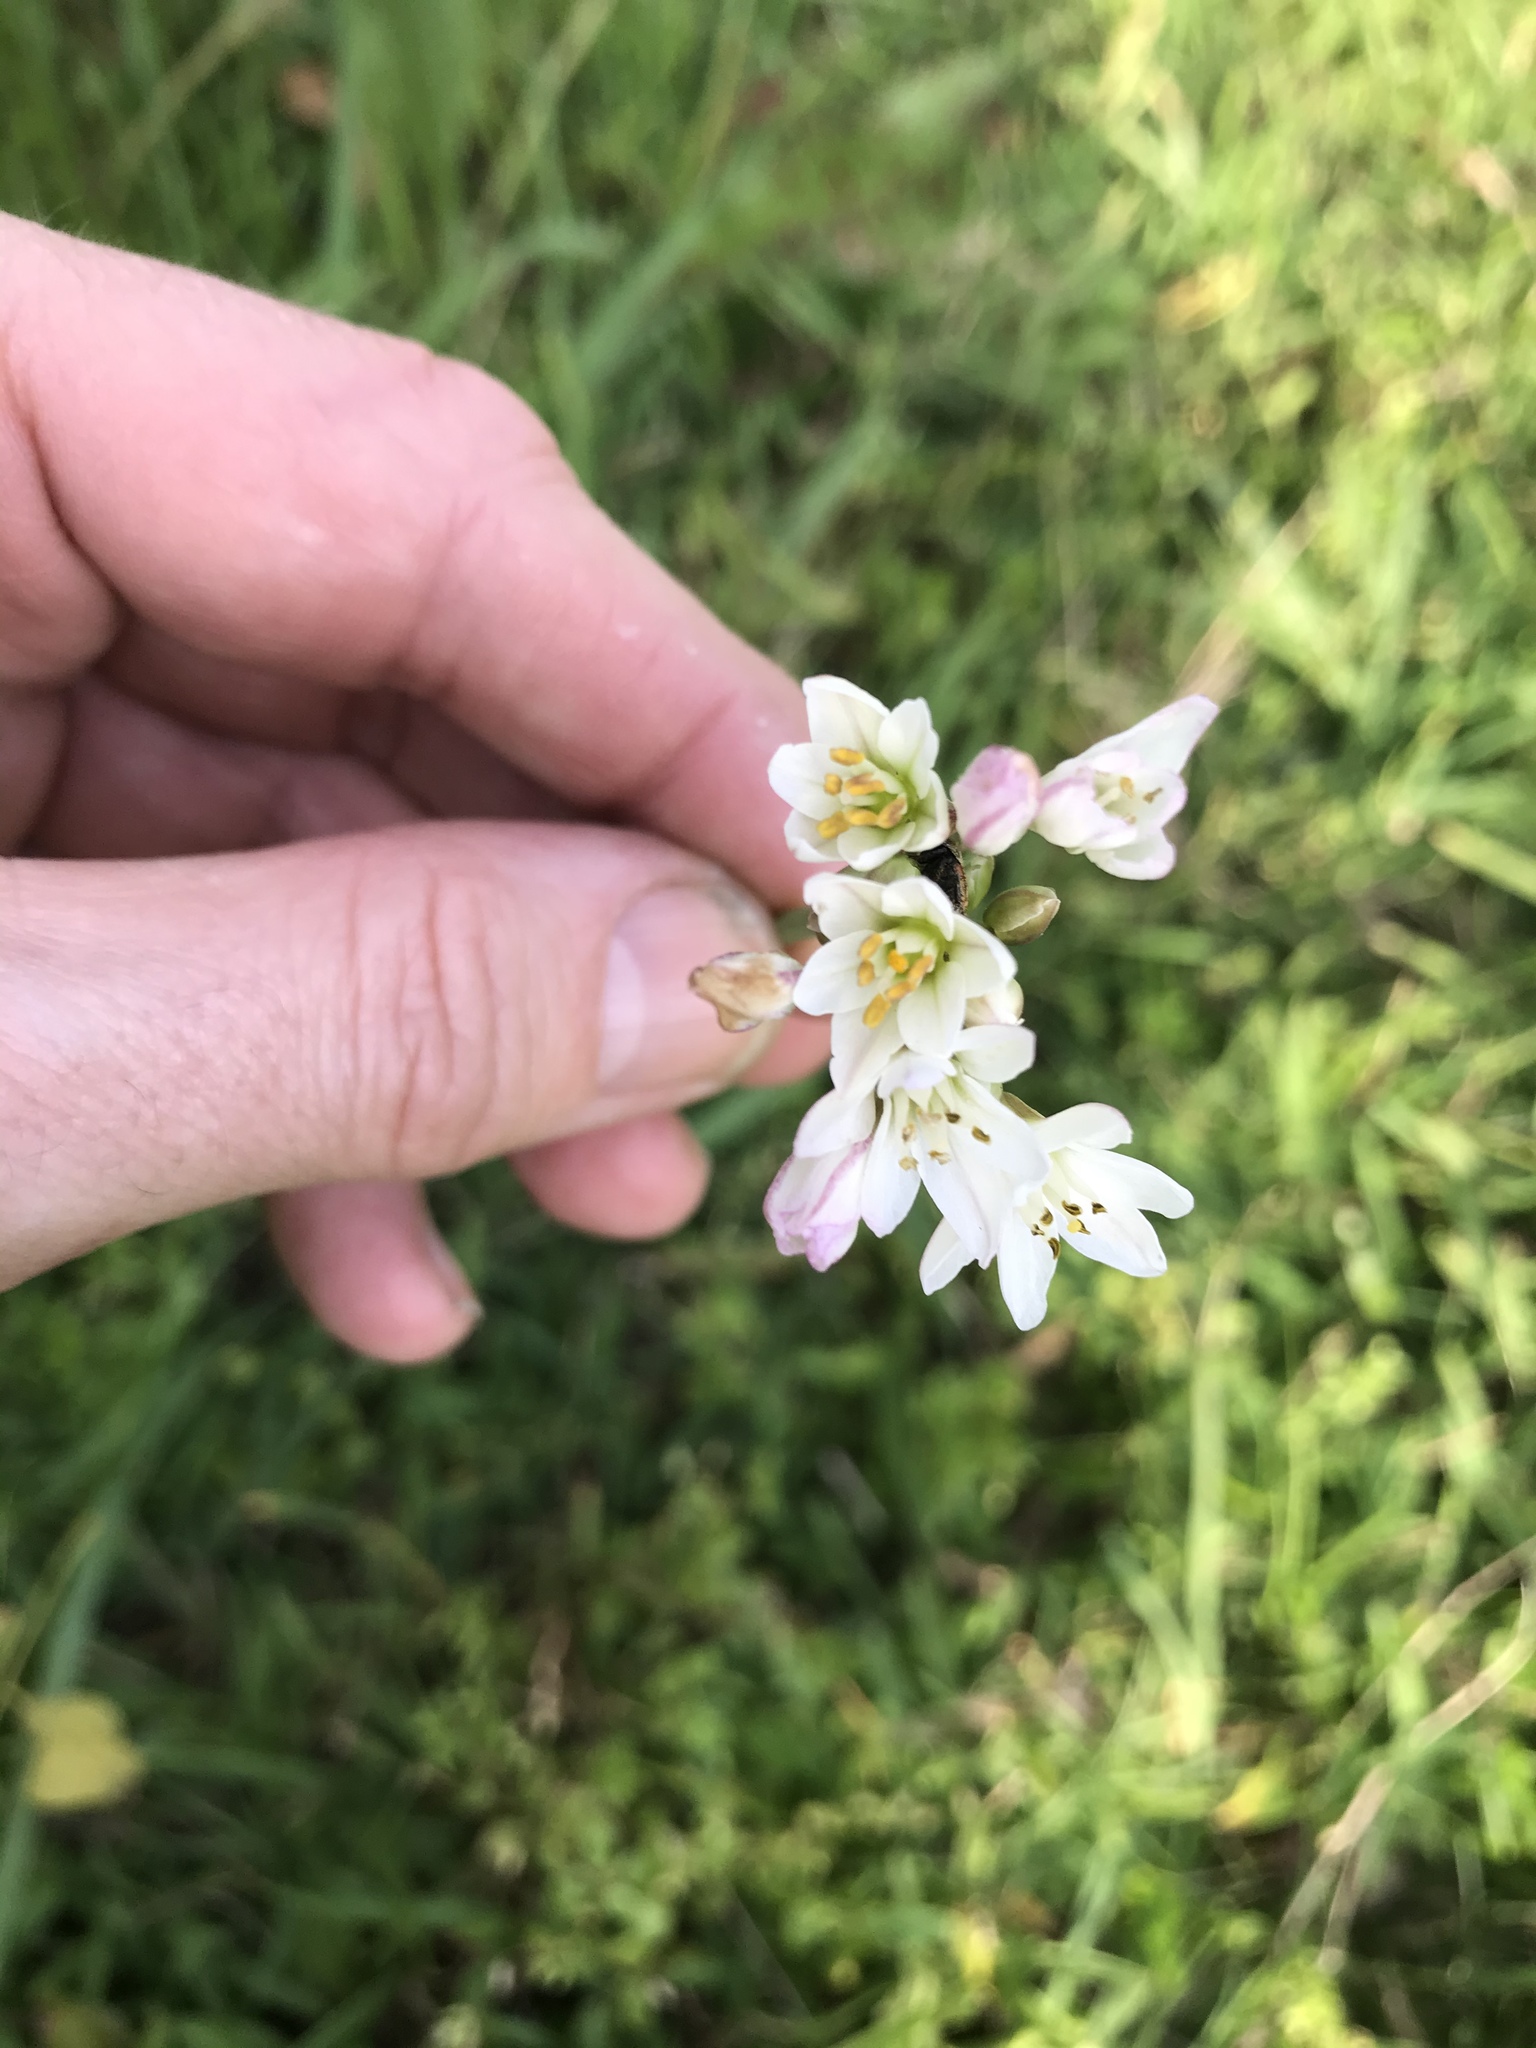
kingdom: Plantae
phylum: Tracheophyta
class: Liliopsida
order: Asparagales
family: Amaryllidaceae
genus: Nothoscordum
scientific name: Nothoscordum gracile
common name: Slender false garlic
